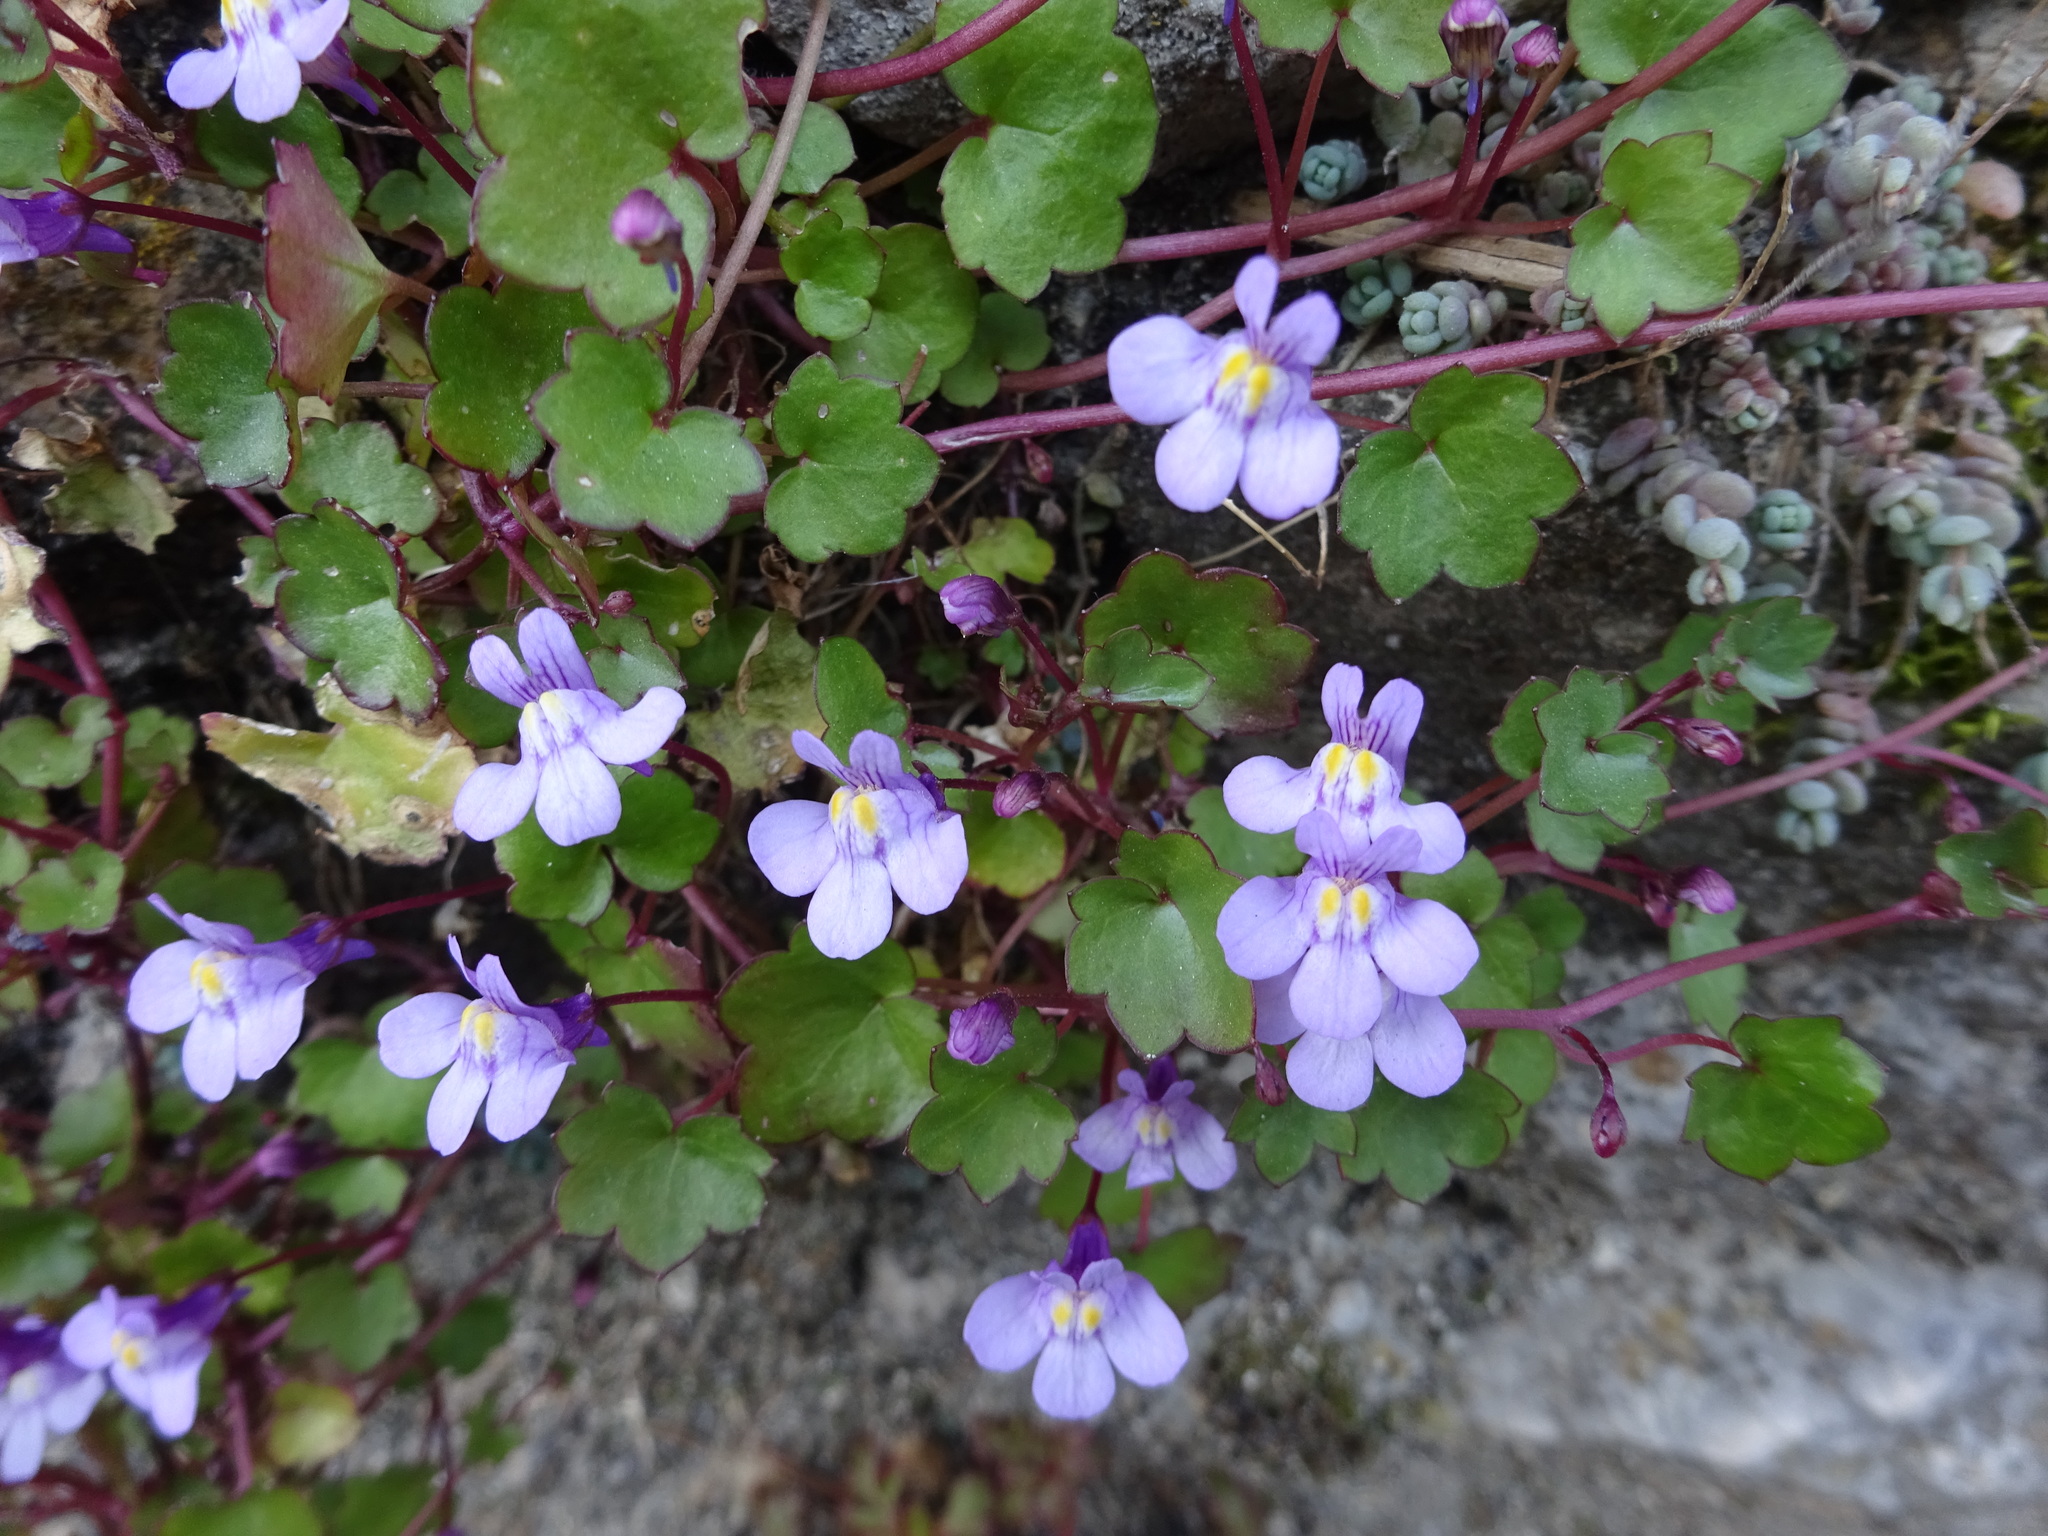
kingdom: Plantae
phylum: Tracheophyta
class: Magnoliopsida
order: Lamiales
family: Plantaginaceae
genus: Cymbalaria
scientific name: Cymbalaria muralis
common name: Ivy-leaved toadflax
